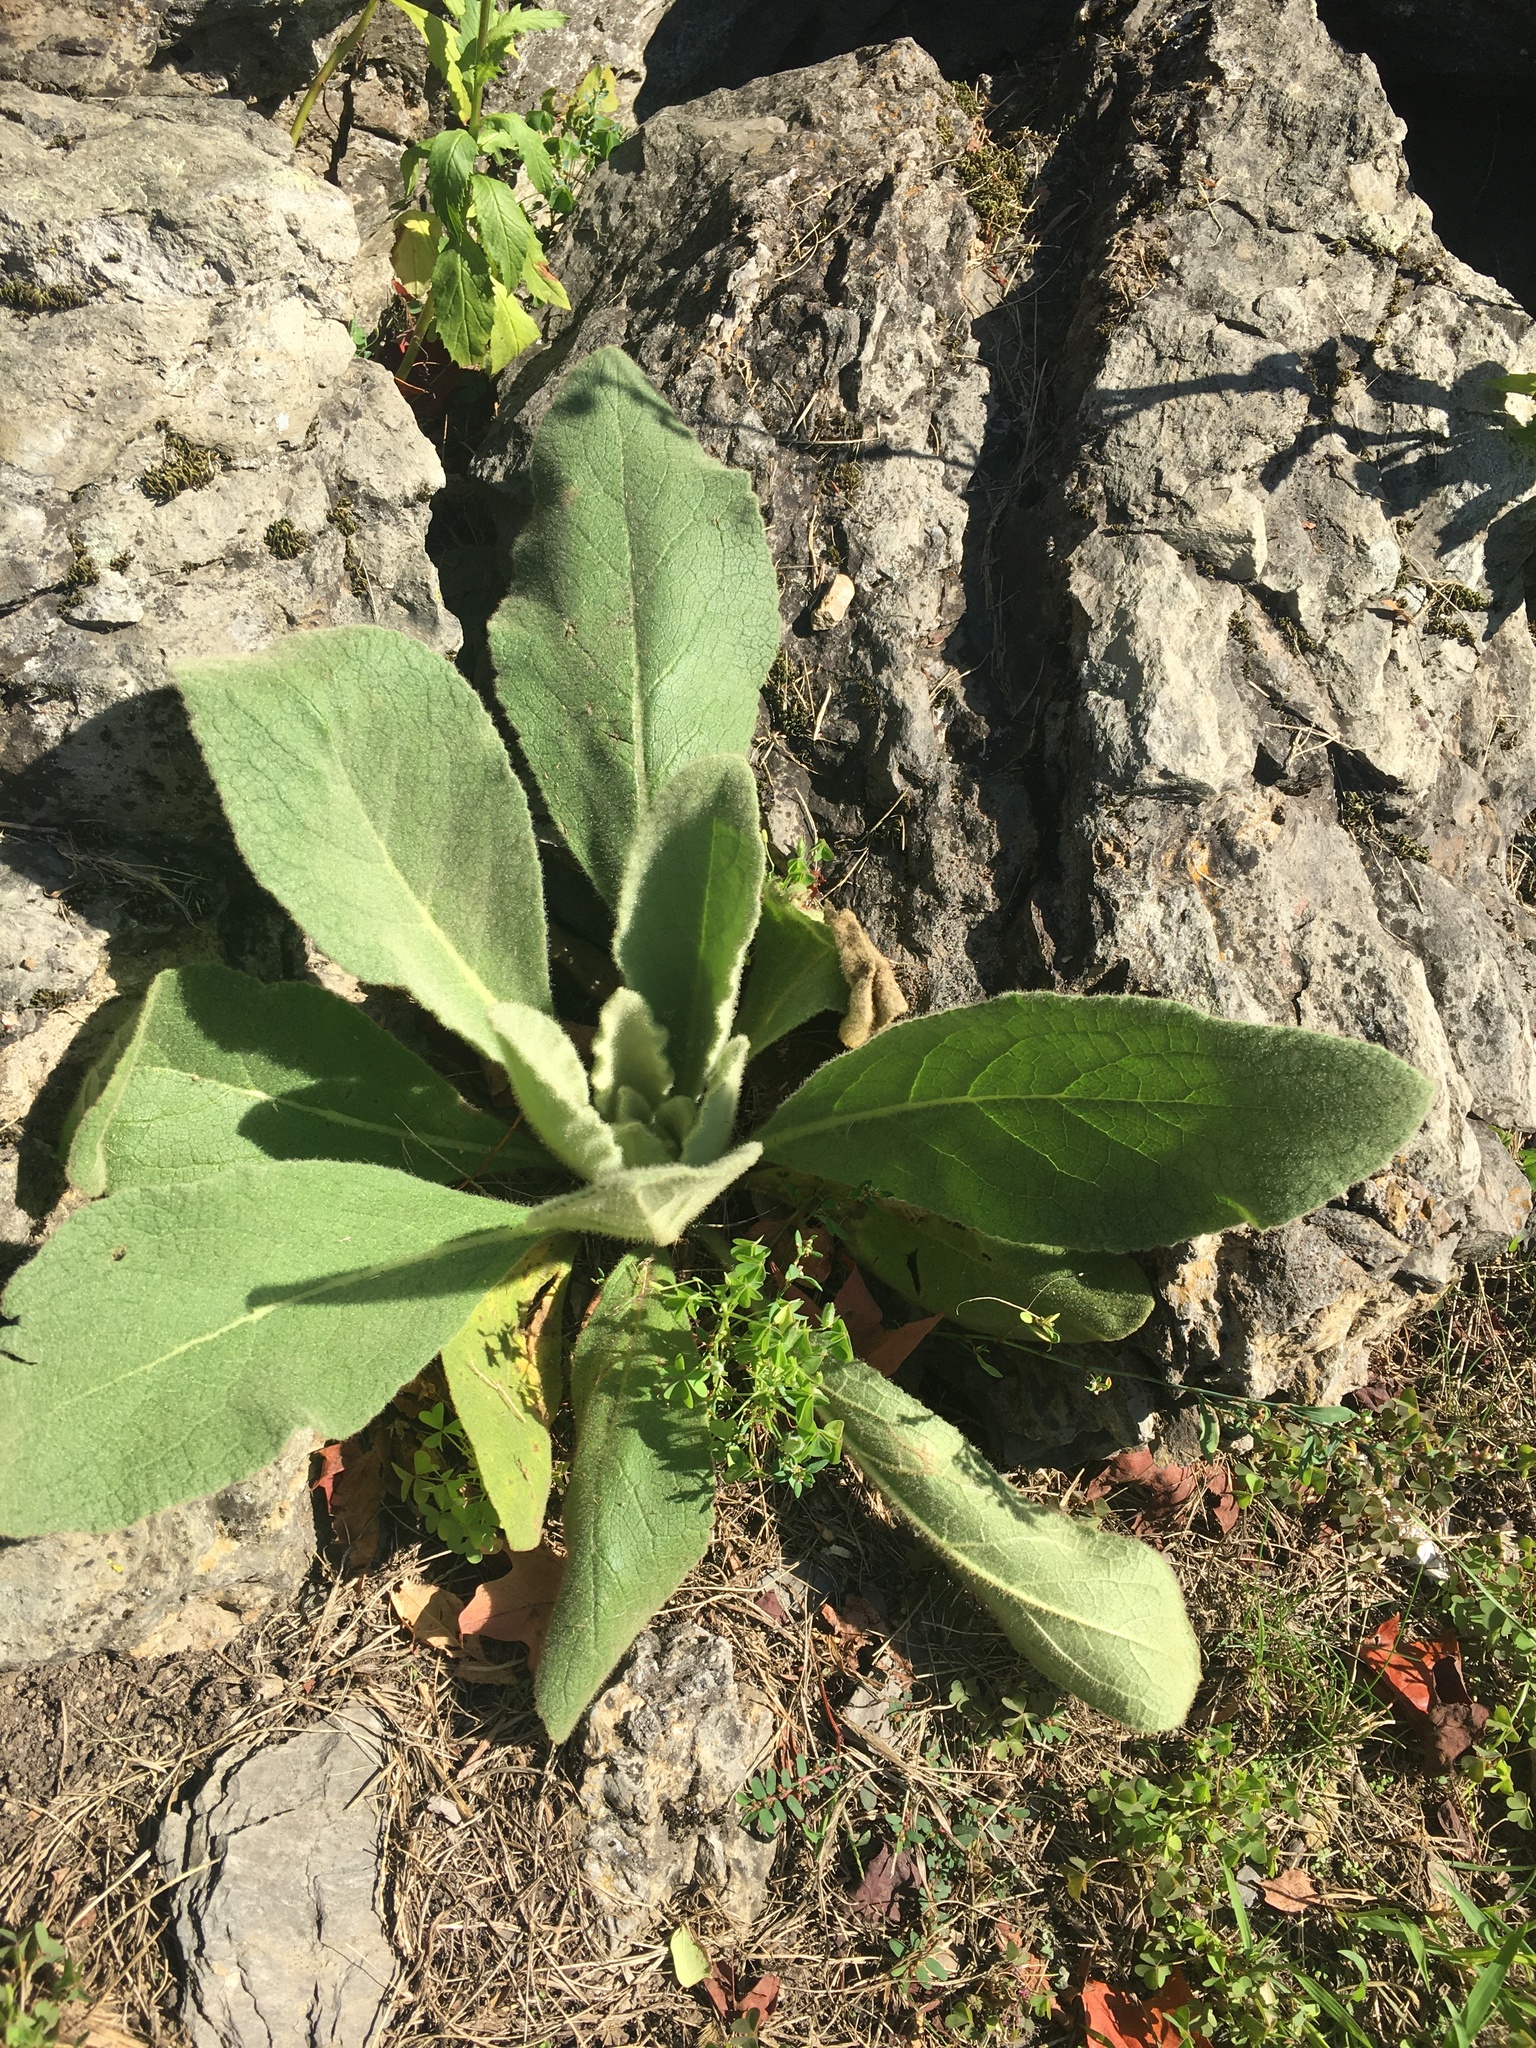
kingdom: Plantae
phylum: Tracheophyta
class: Magnoliopsida
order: Lamiales
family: Scrophulariaceae
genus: Verbascum
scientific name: Verbascum thapsus
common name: Common mullein
